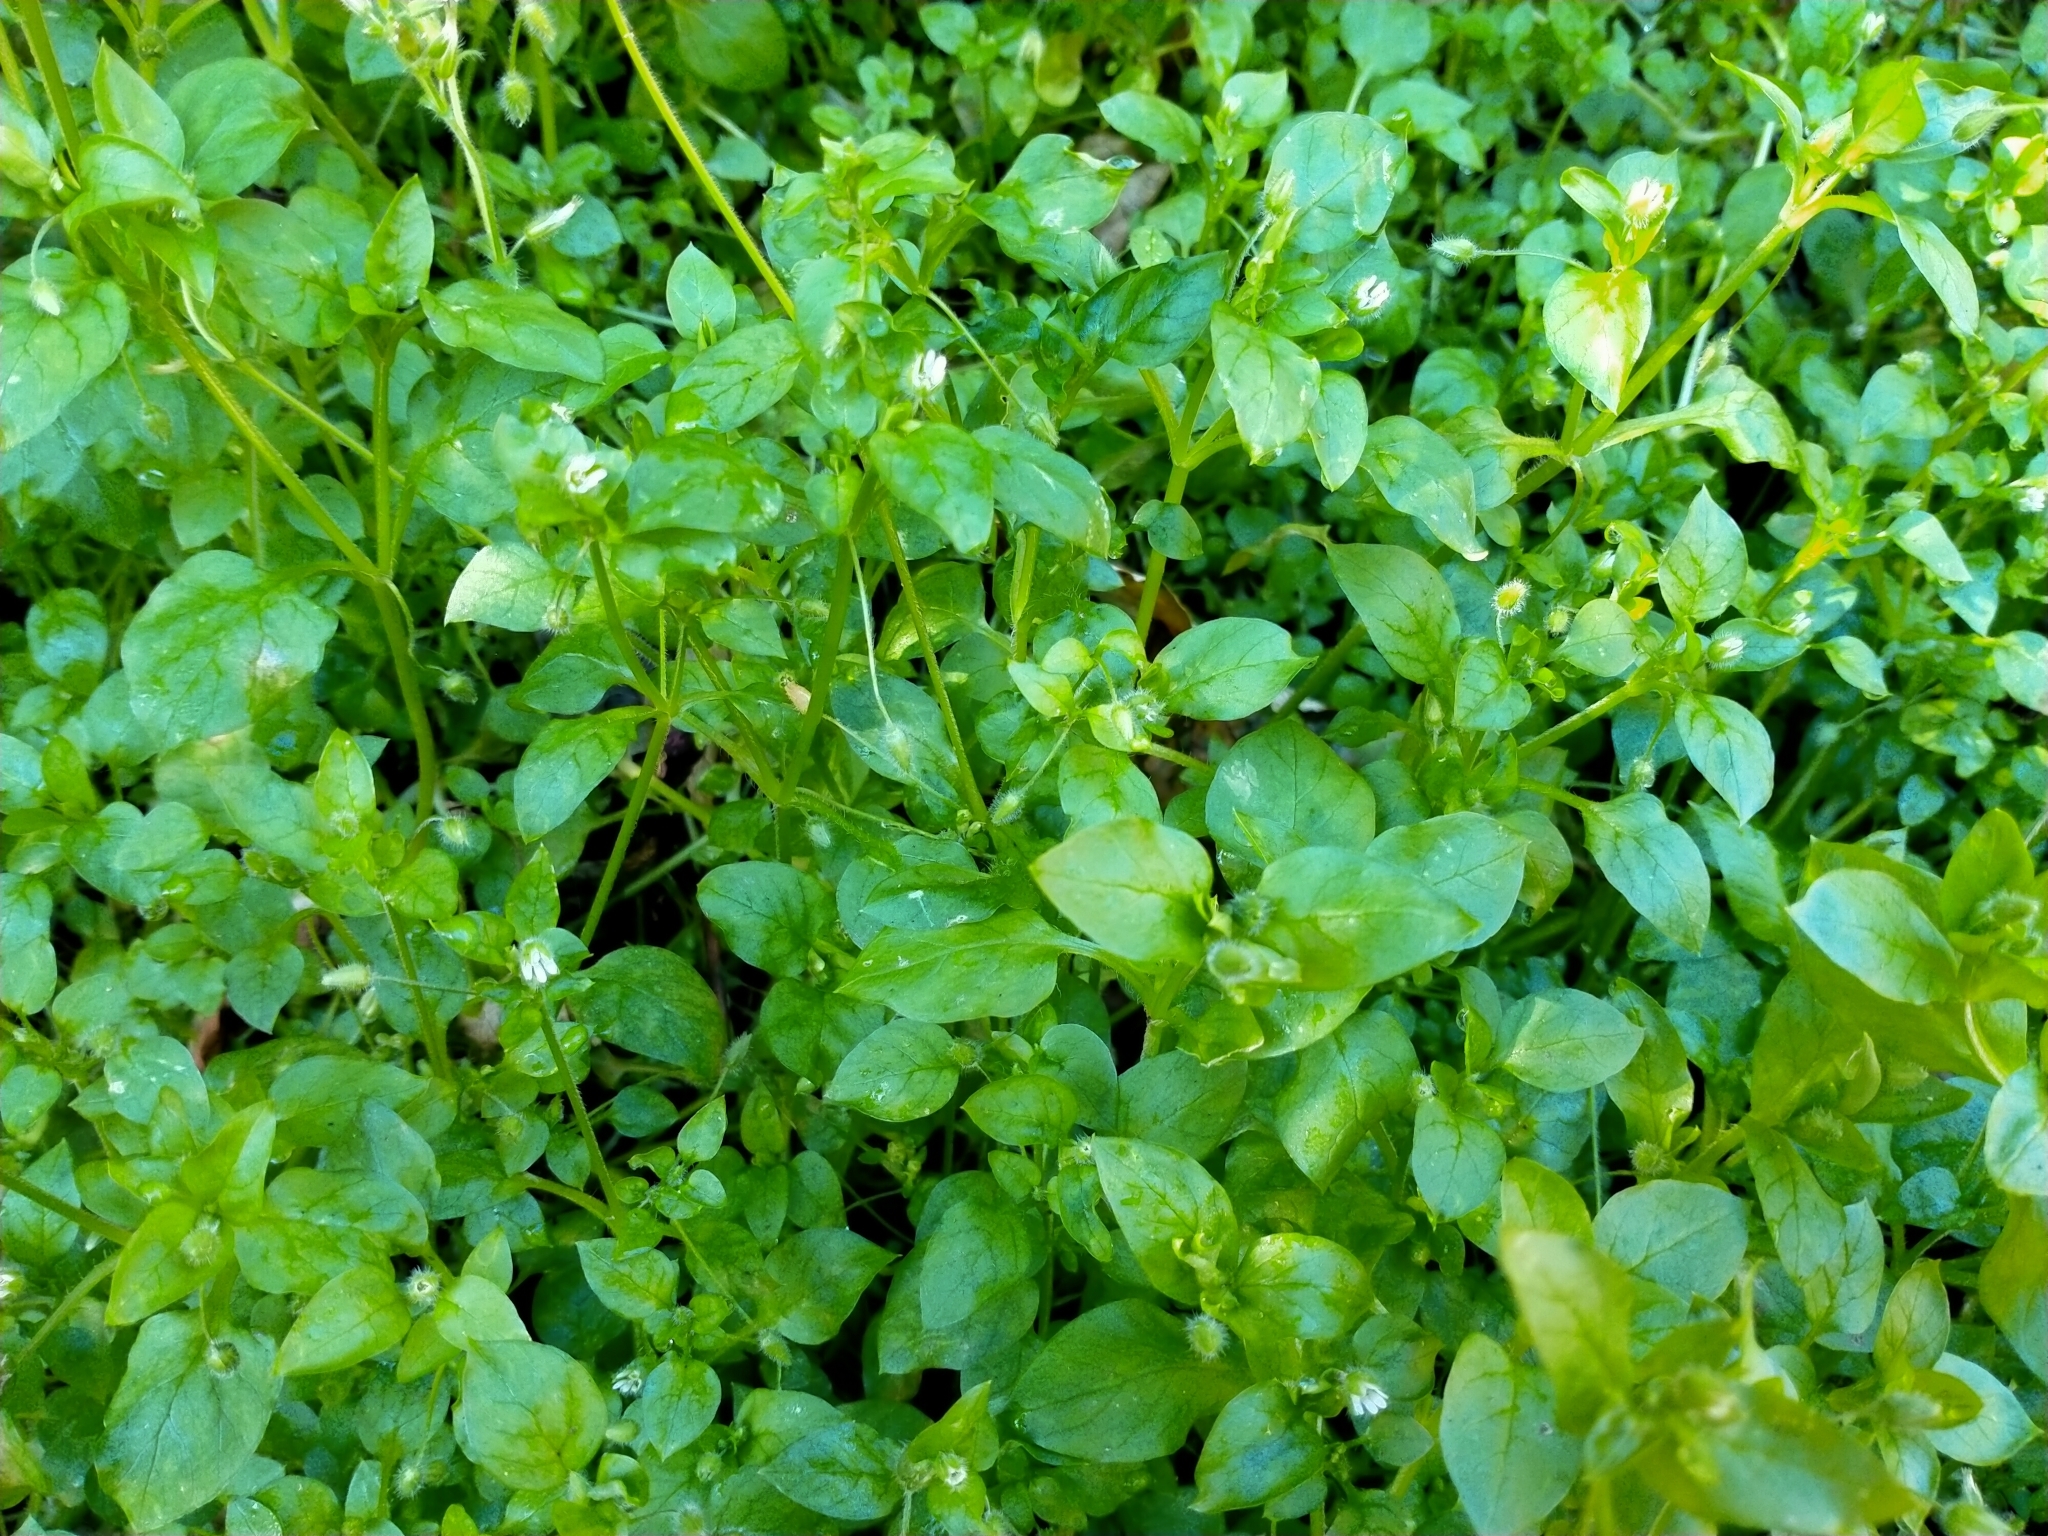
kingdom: Plantae
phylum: Tracheophyta
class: Magnoliopsida
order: Caryophyllales
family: Caryophyllaceae
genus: Stellaria
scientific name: Stellaria media
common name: Common chickweed
